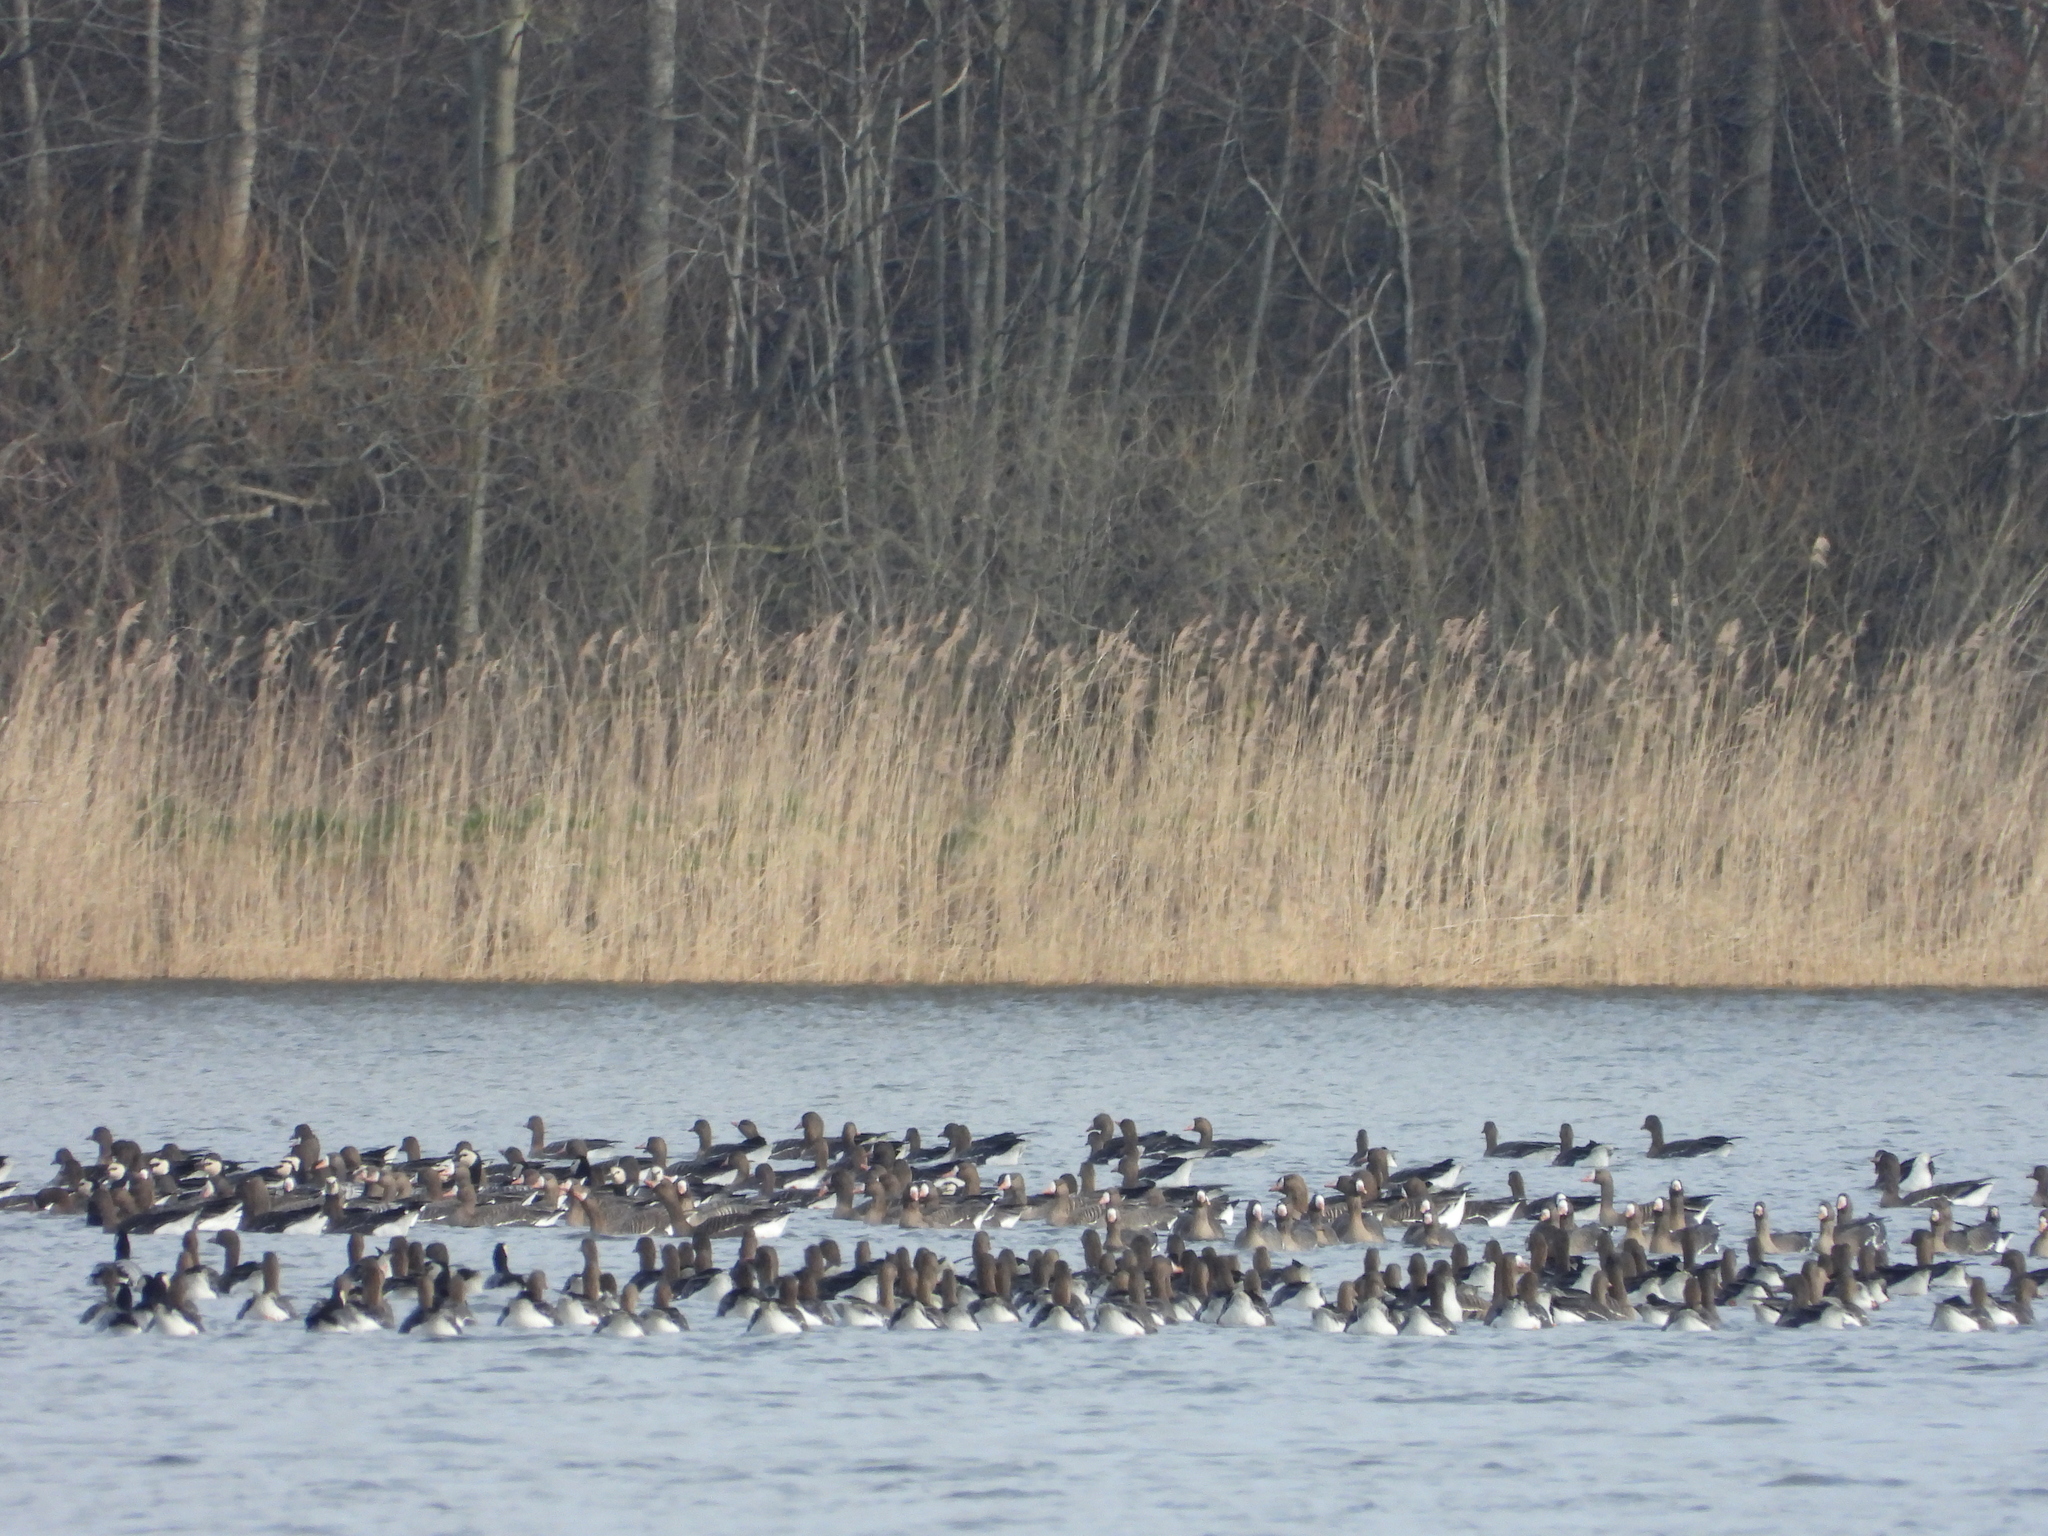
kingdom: Animalia
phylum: Chordata
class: Aves
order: Anseriformes
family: Anatidae
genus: Branta
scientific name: Branta leucopsis
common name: Barnacle goose
